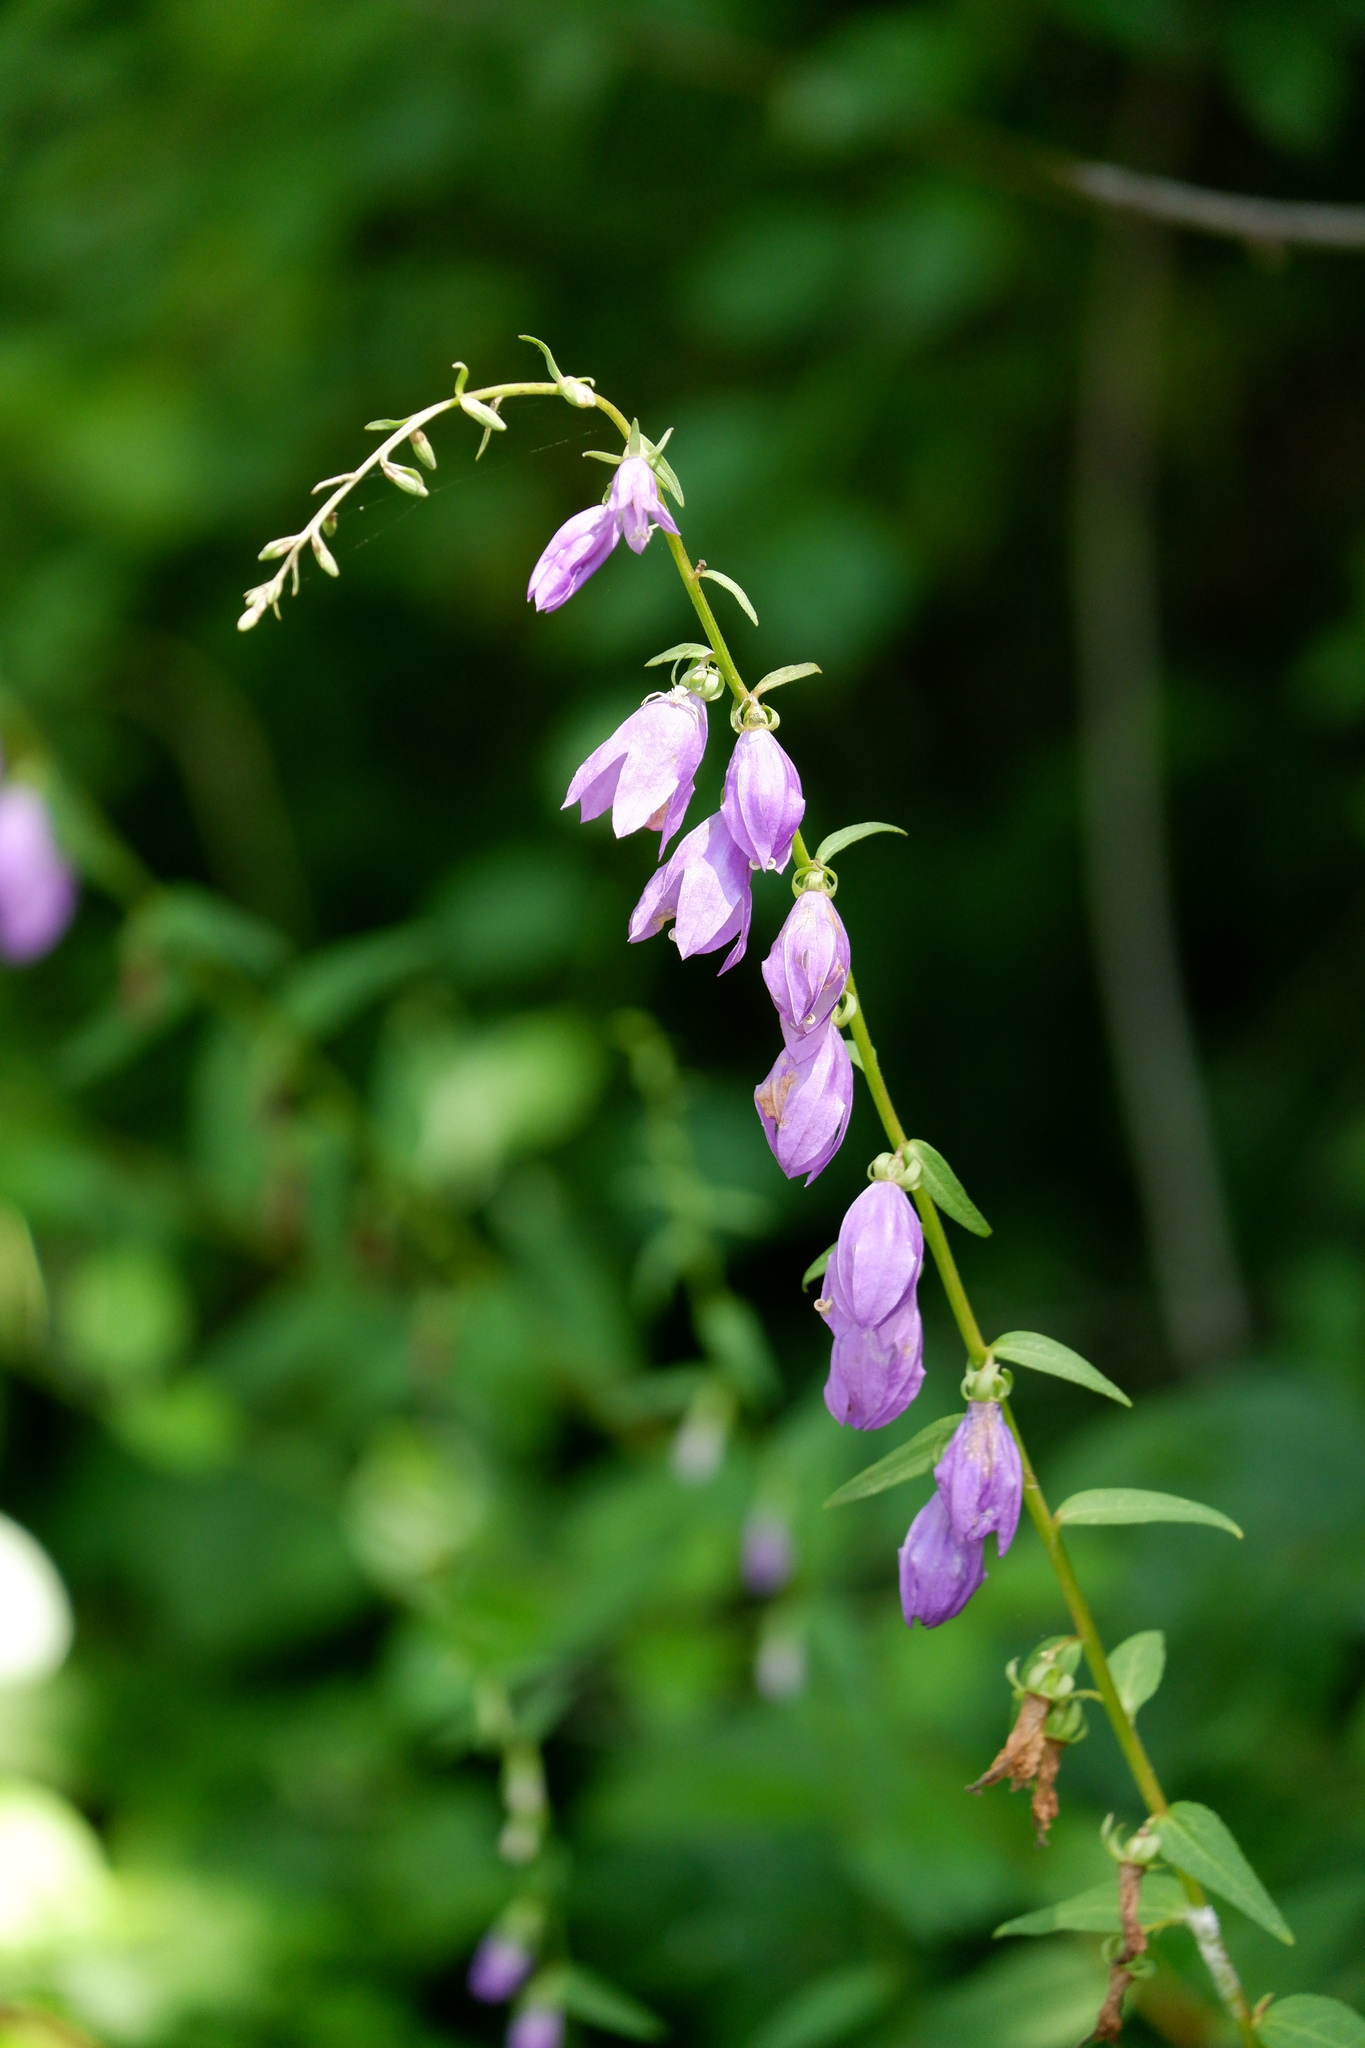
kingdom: Plantae
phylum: Tracheophyta
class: Magnoliopsida
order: Asterales
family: Campanulaceae
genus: Campanula
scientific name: Campanula rapunculoides
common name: Creeping bellflower
